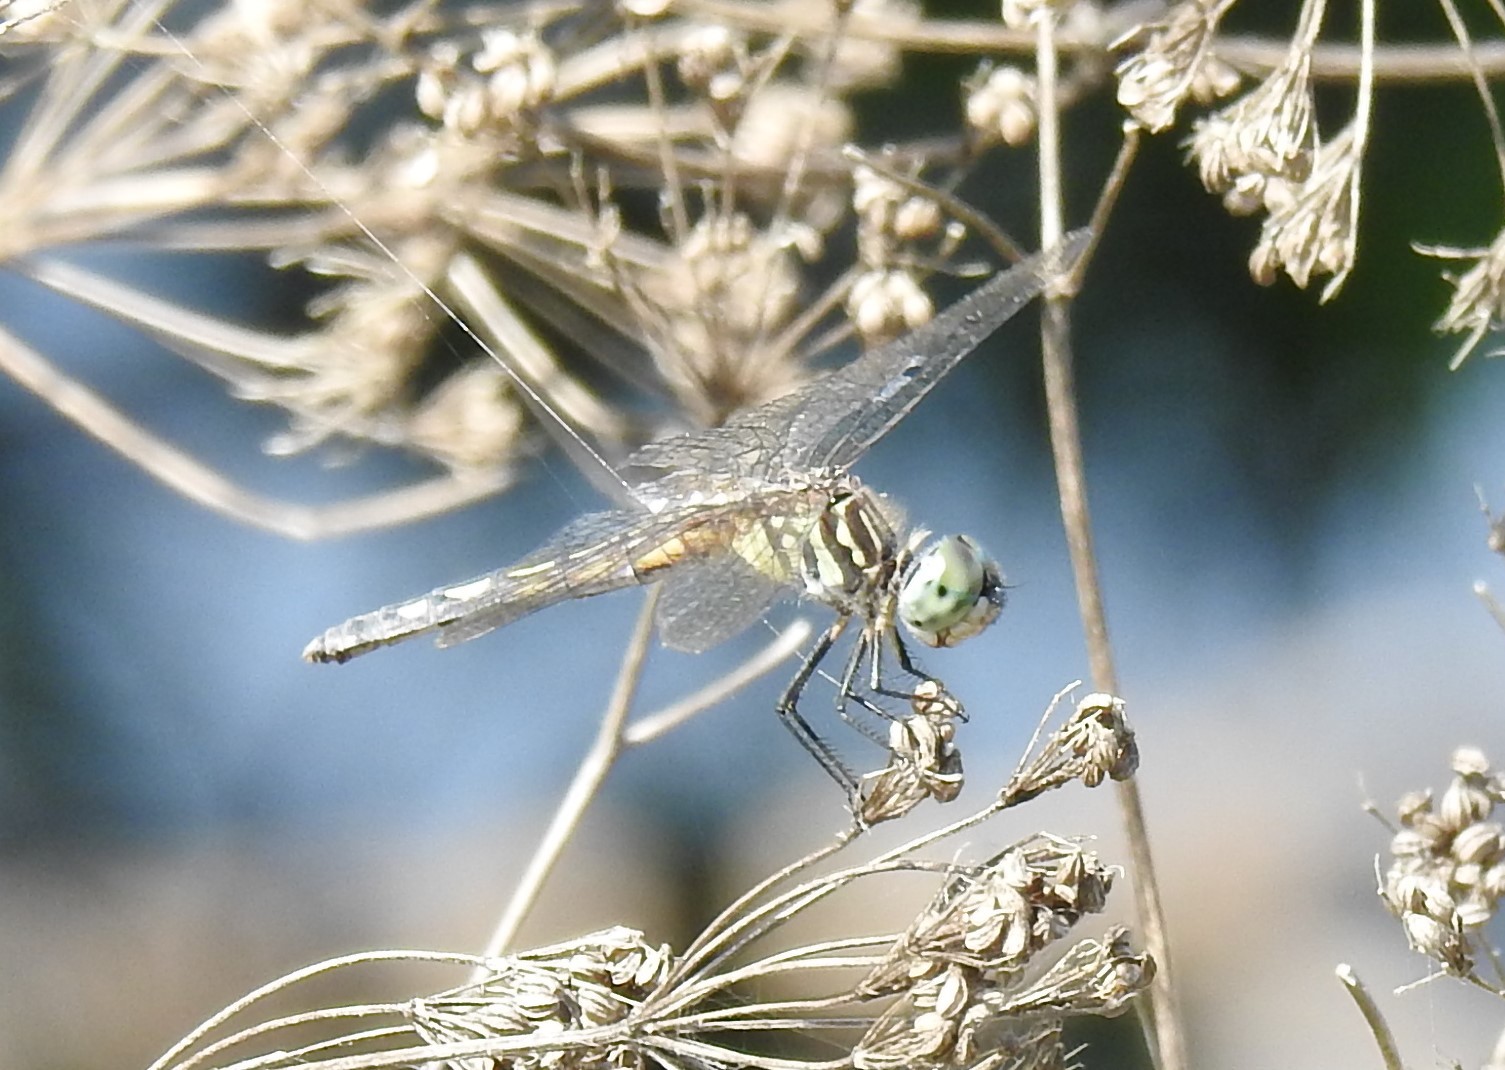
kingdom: Animalia
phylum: Arthropoda
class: Insecta
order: Odonata
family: Libellulidae
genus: Pachydiplax
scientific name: Pachydiplax longipennis
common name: Blue dasher
